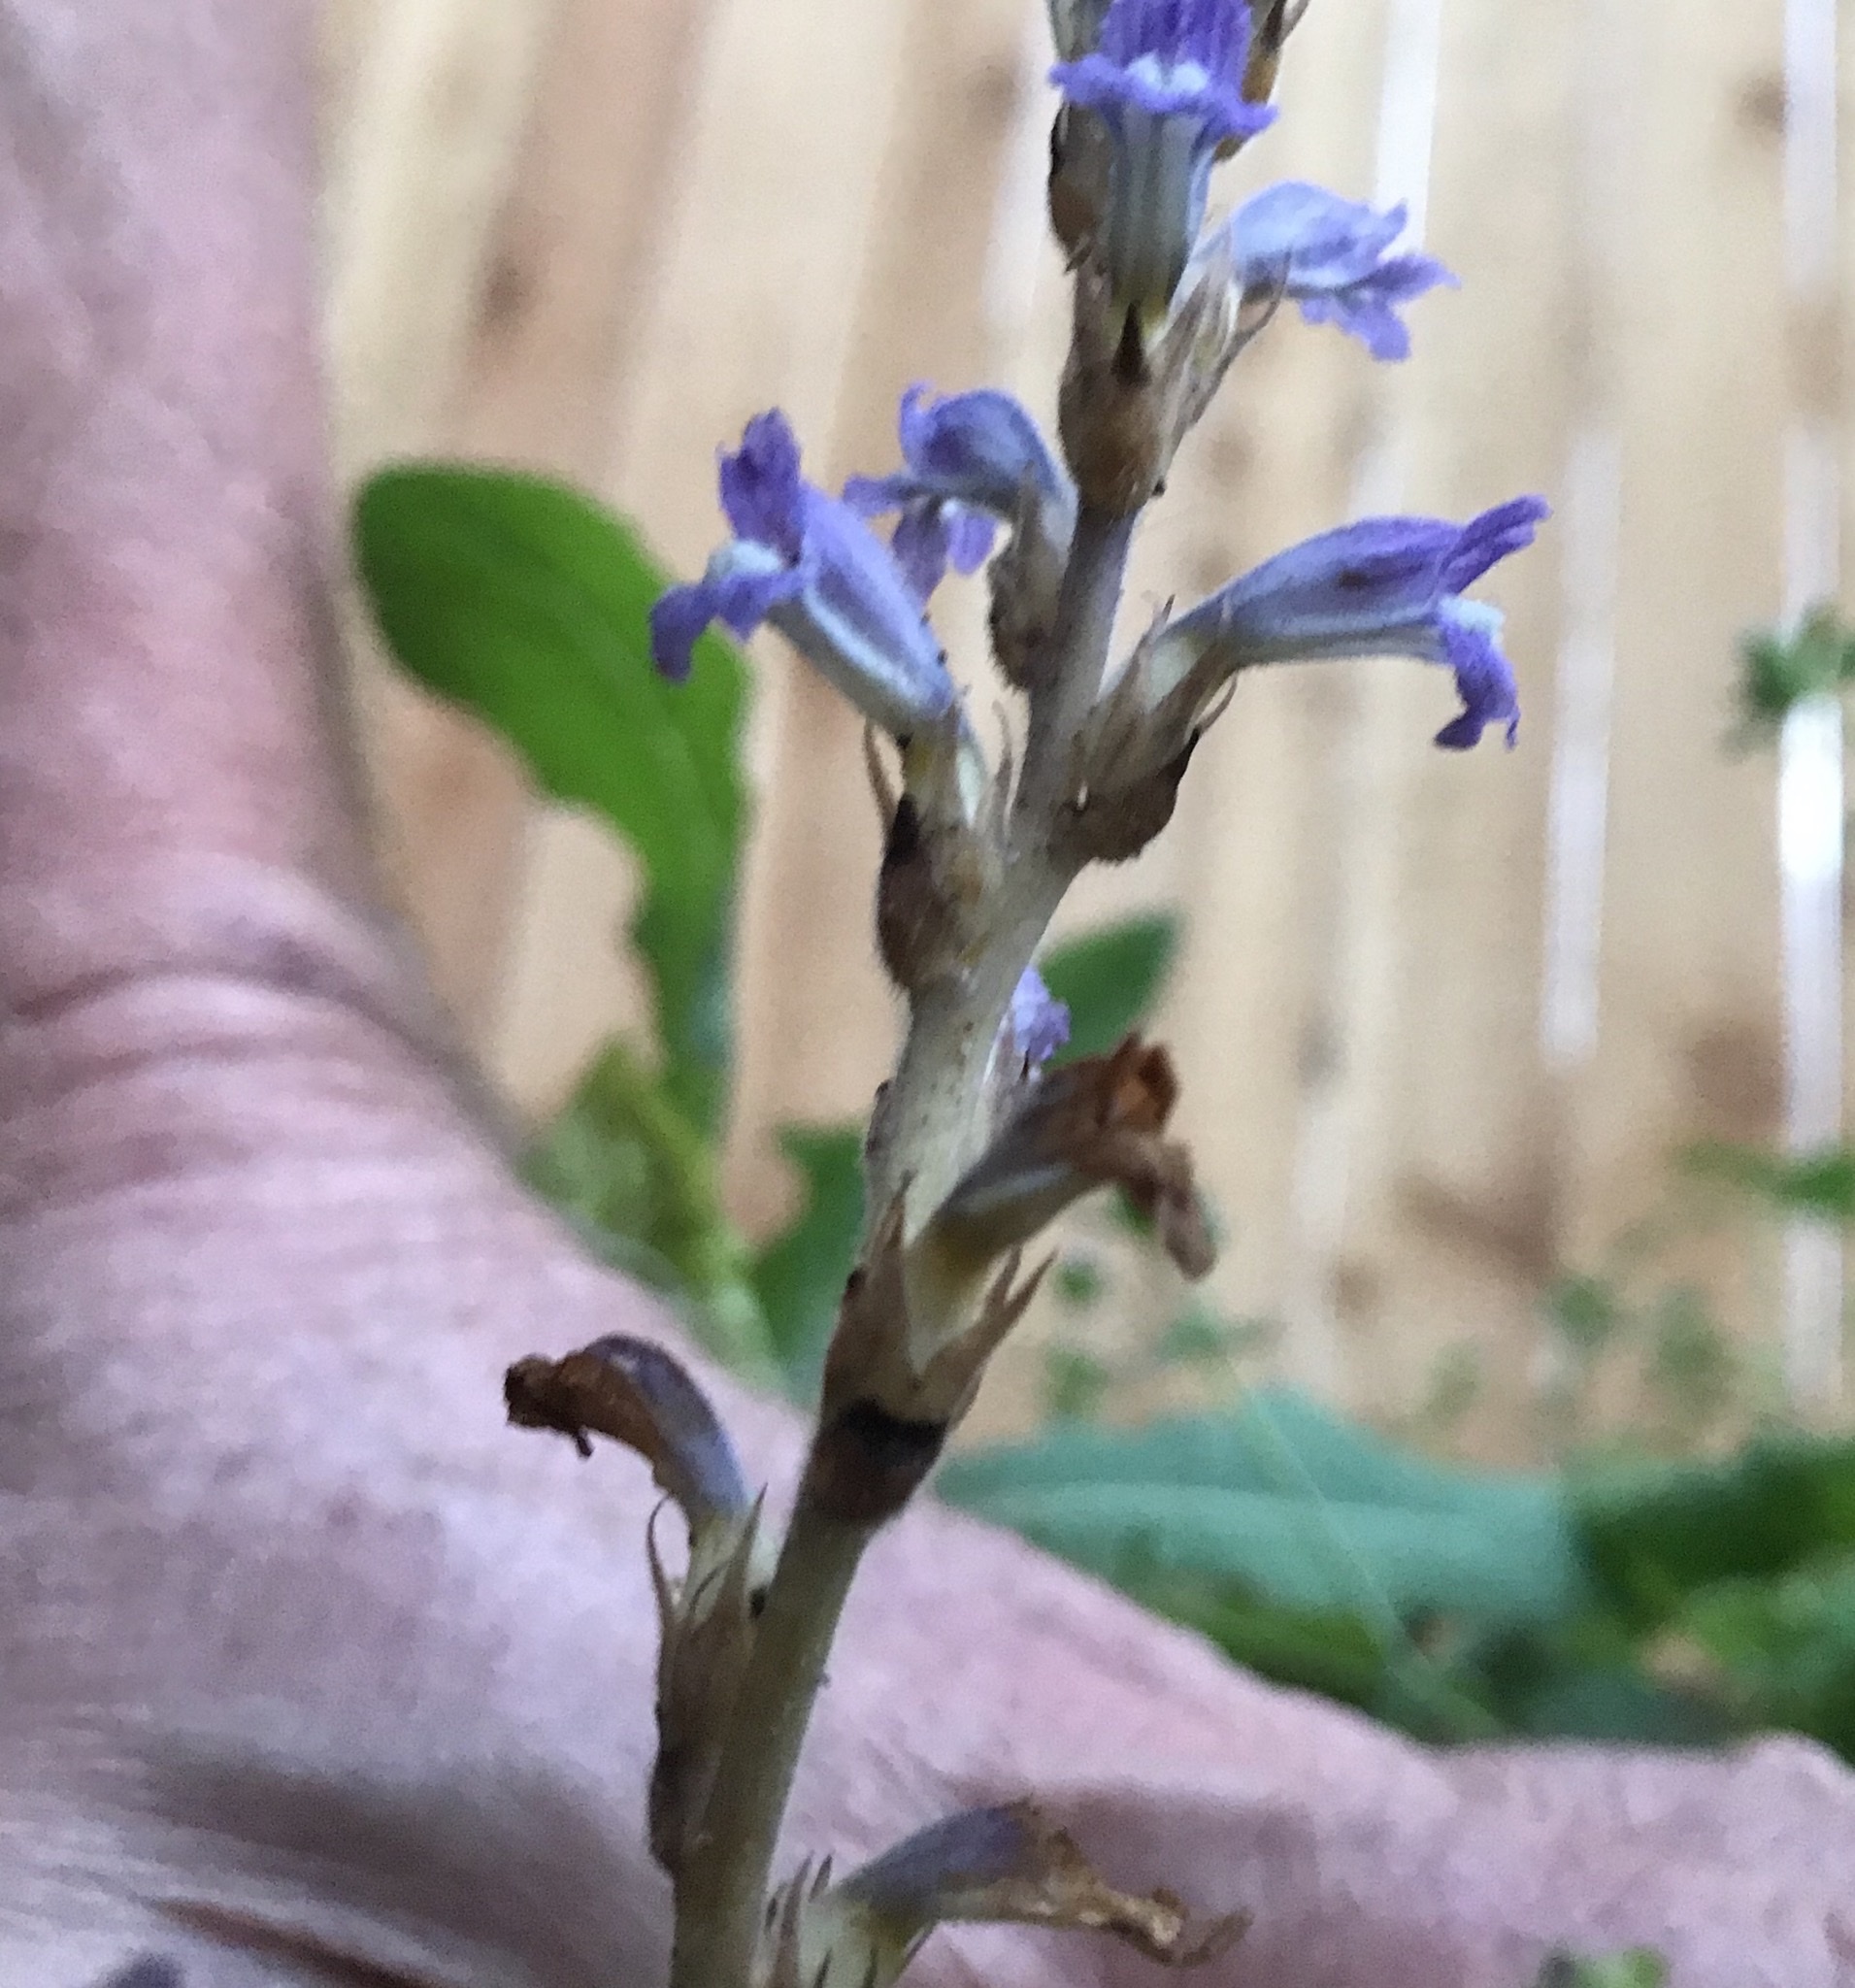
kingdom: Plantae
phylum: Tracheophyta
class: Magnoliopsida
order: Lamiales
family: Orobanchaceae
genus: Phelipanche
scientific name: Phelipanche mutelii
